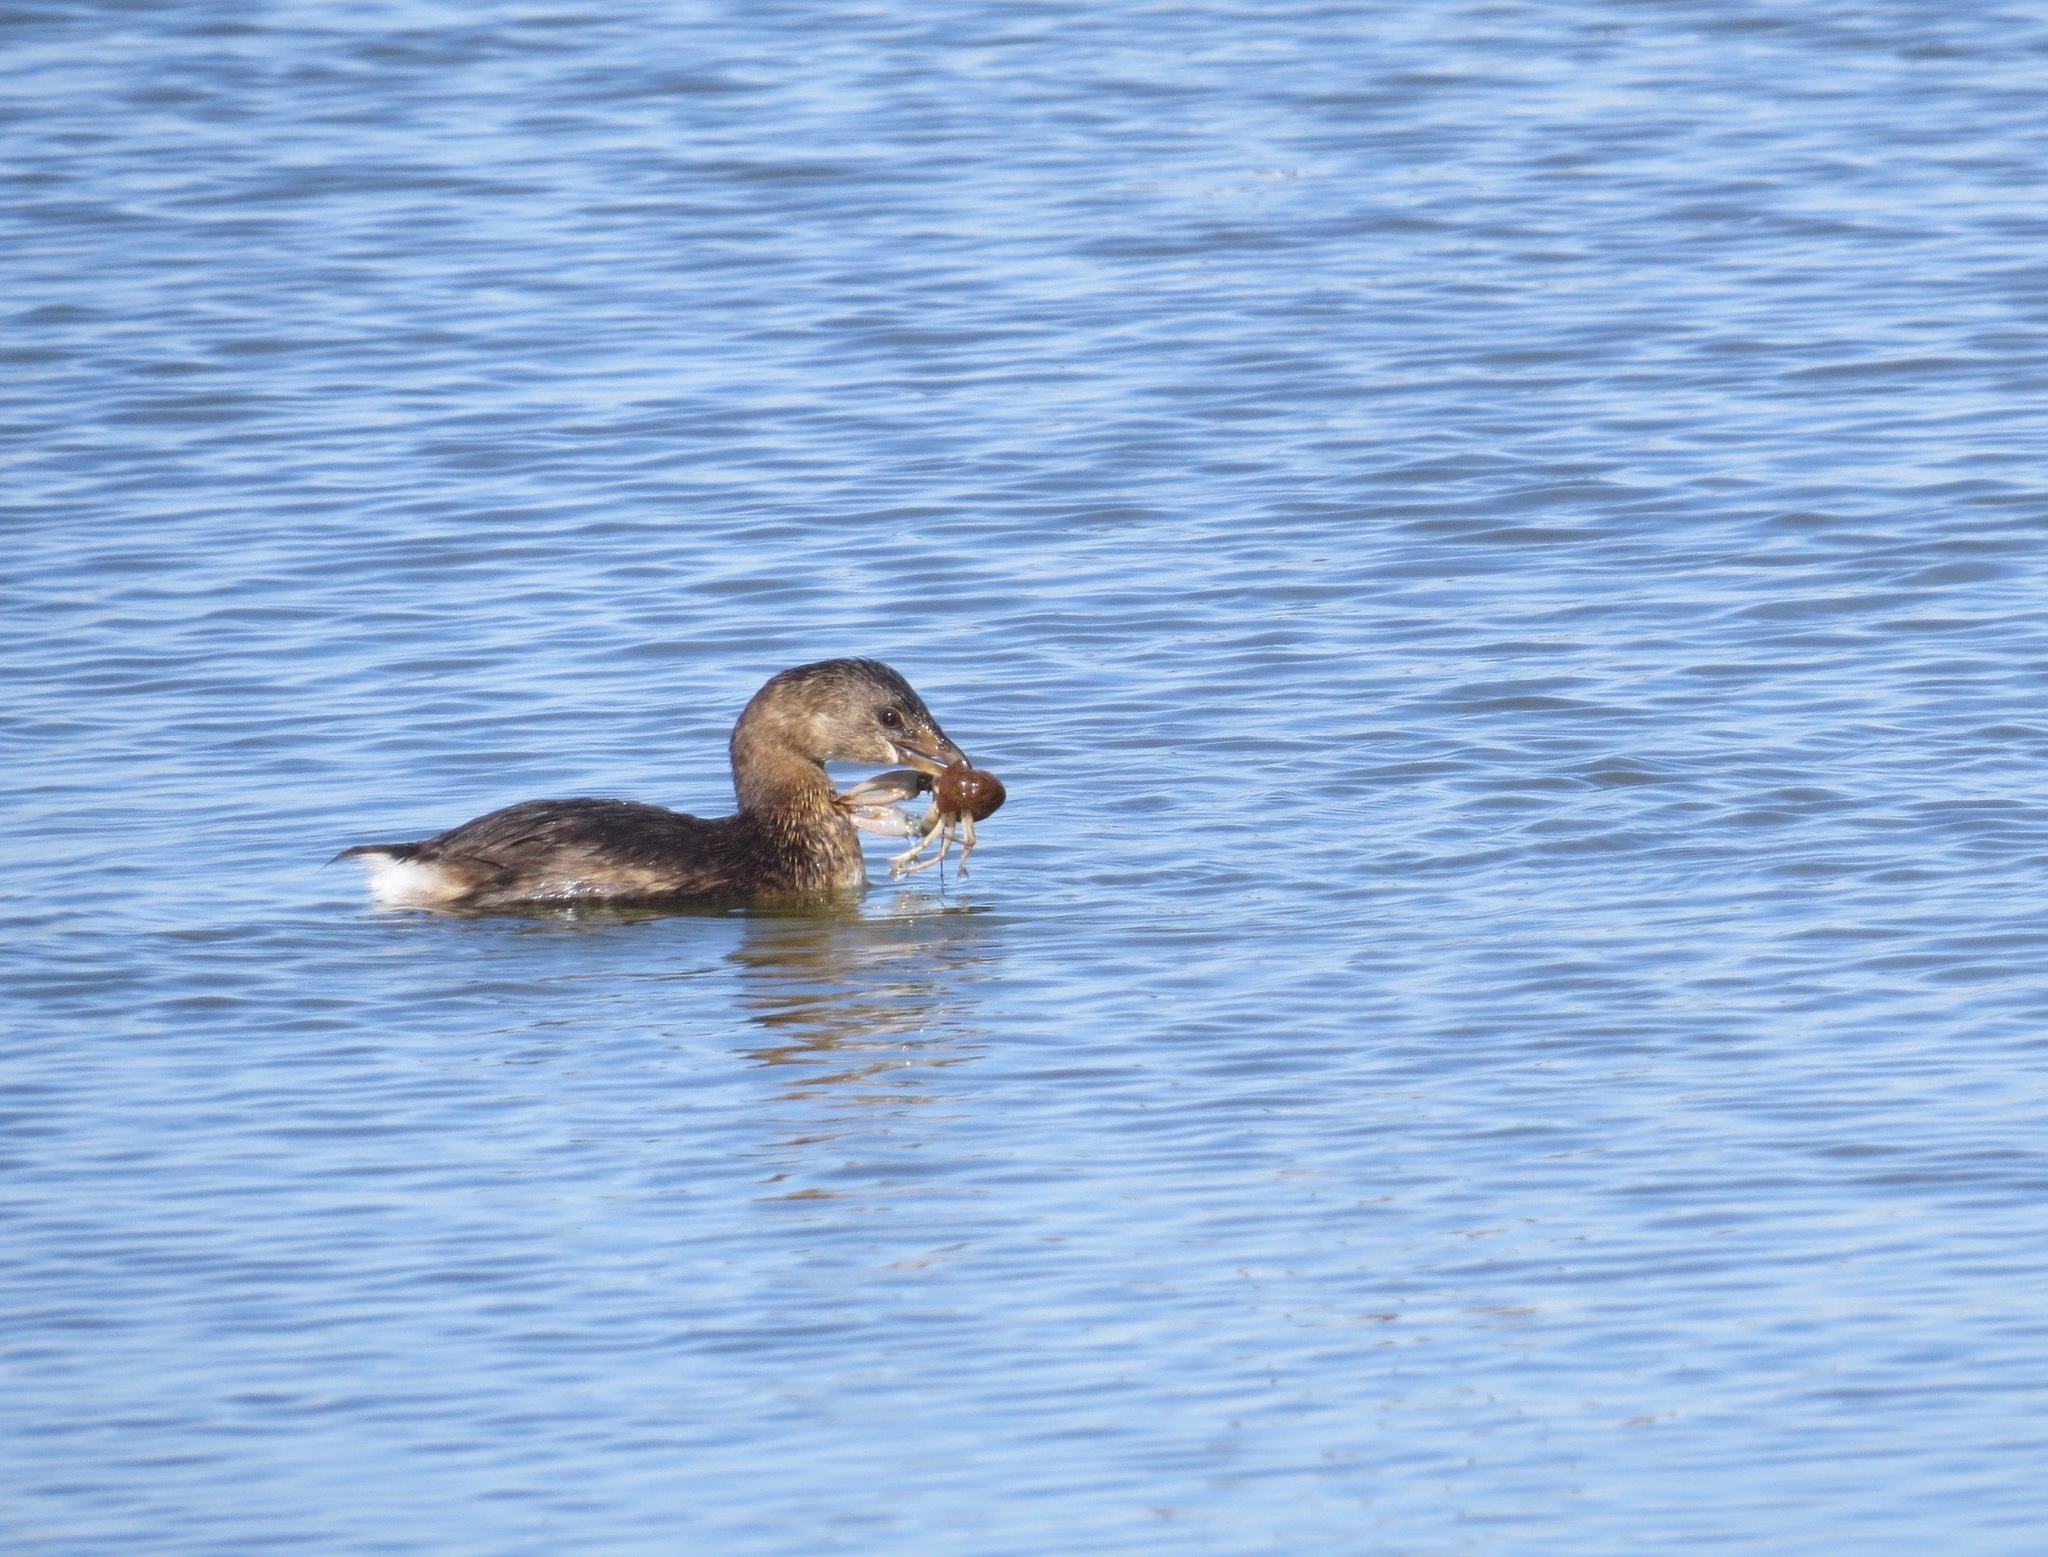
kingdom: Animalia
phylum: Chordata
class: Aves
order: Podicipediformes
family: Podicipedidae
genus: Podilymbus
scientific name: Podilymbus podiceps
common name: Pied-billed grebe
